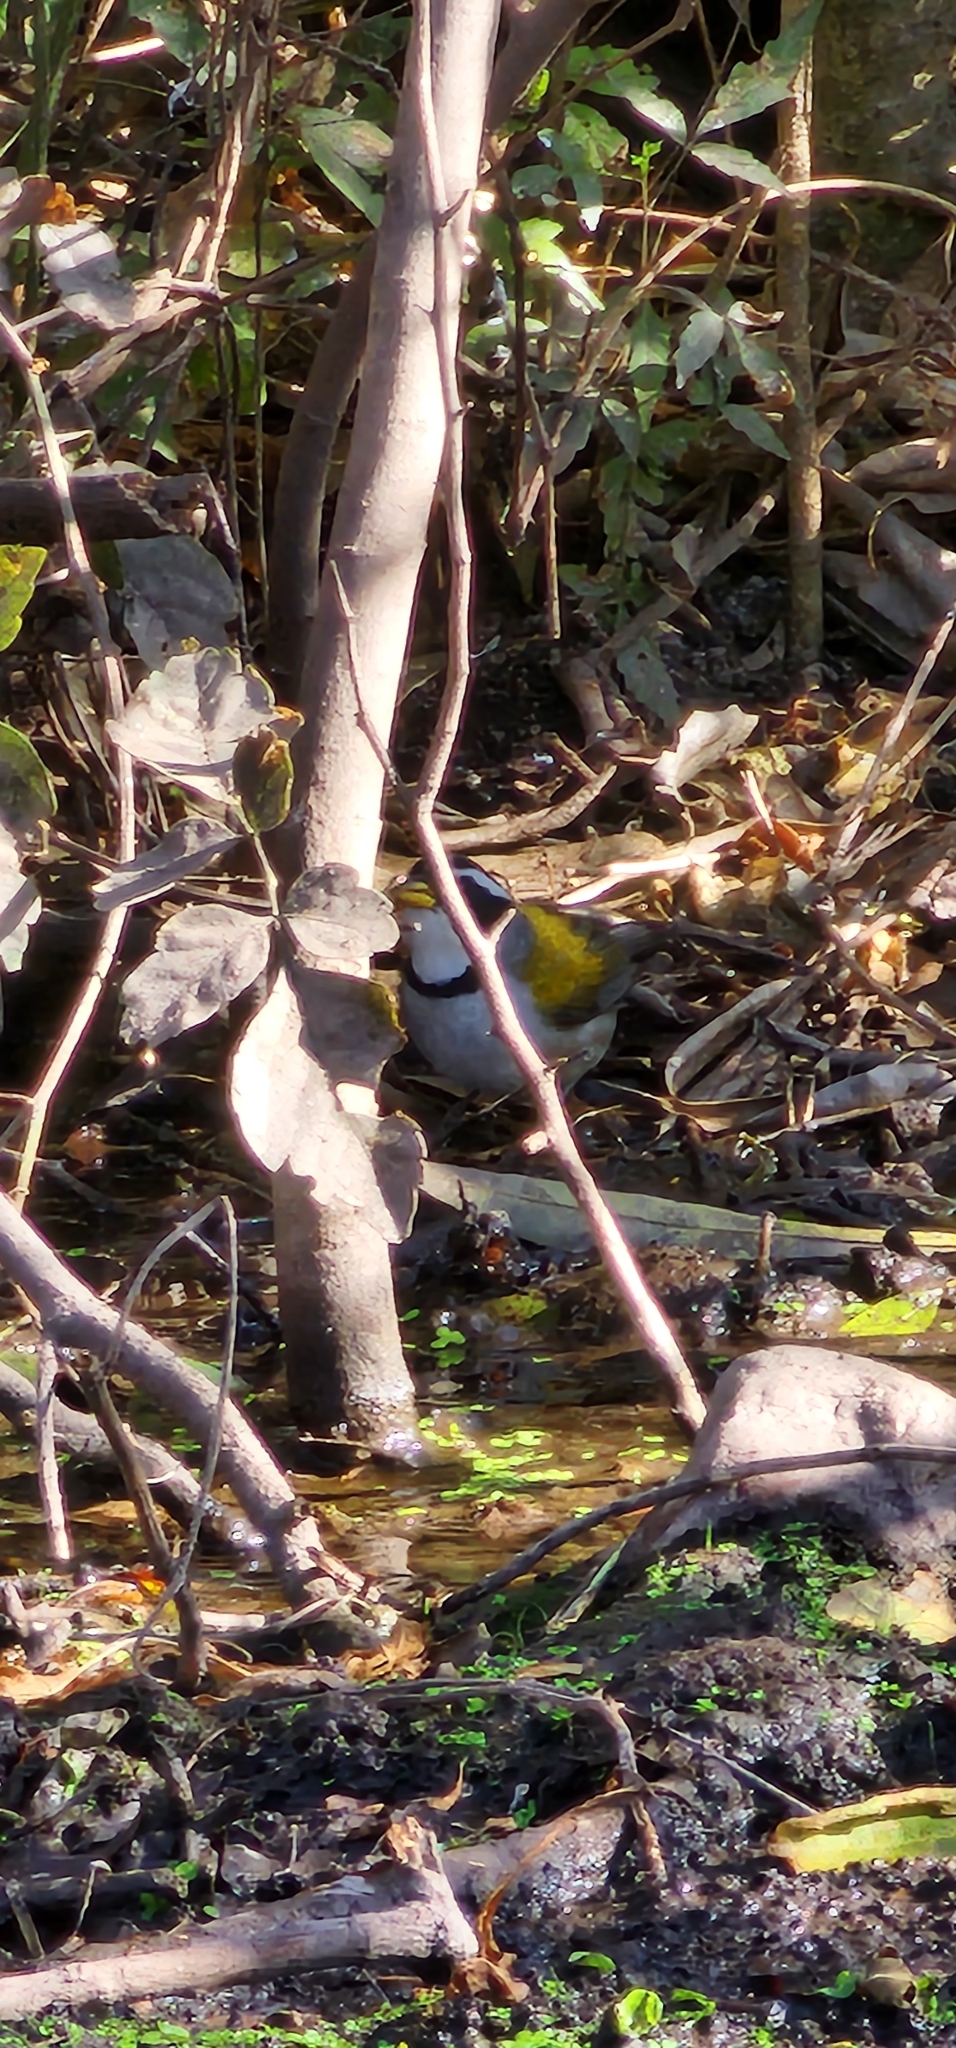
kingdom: Animalia
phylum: Chordata
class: Aves
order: Passeriformes
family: Passerellidae
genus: Arremon
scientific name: Arremon dorbignii
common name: Moss-backed sparrow
